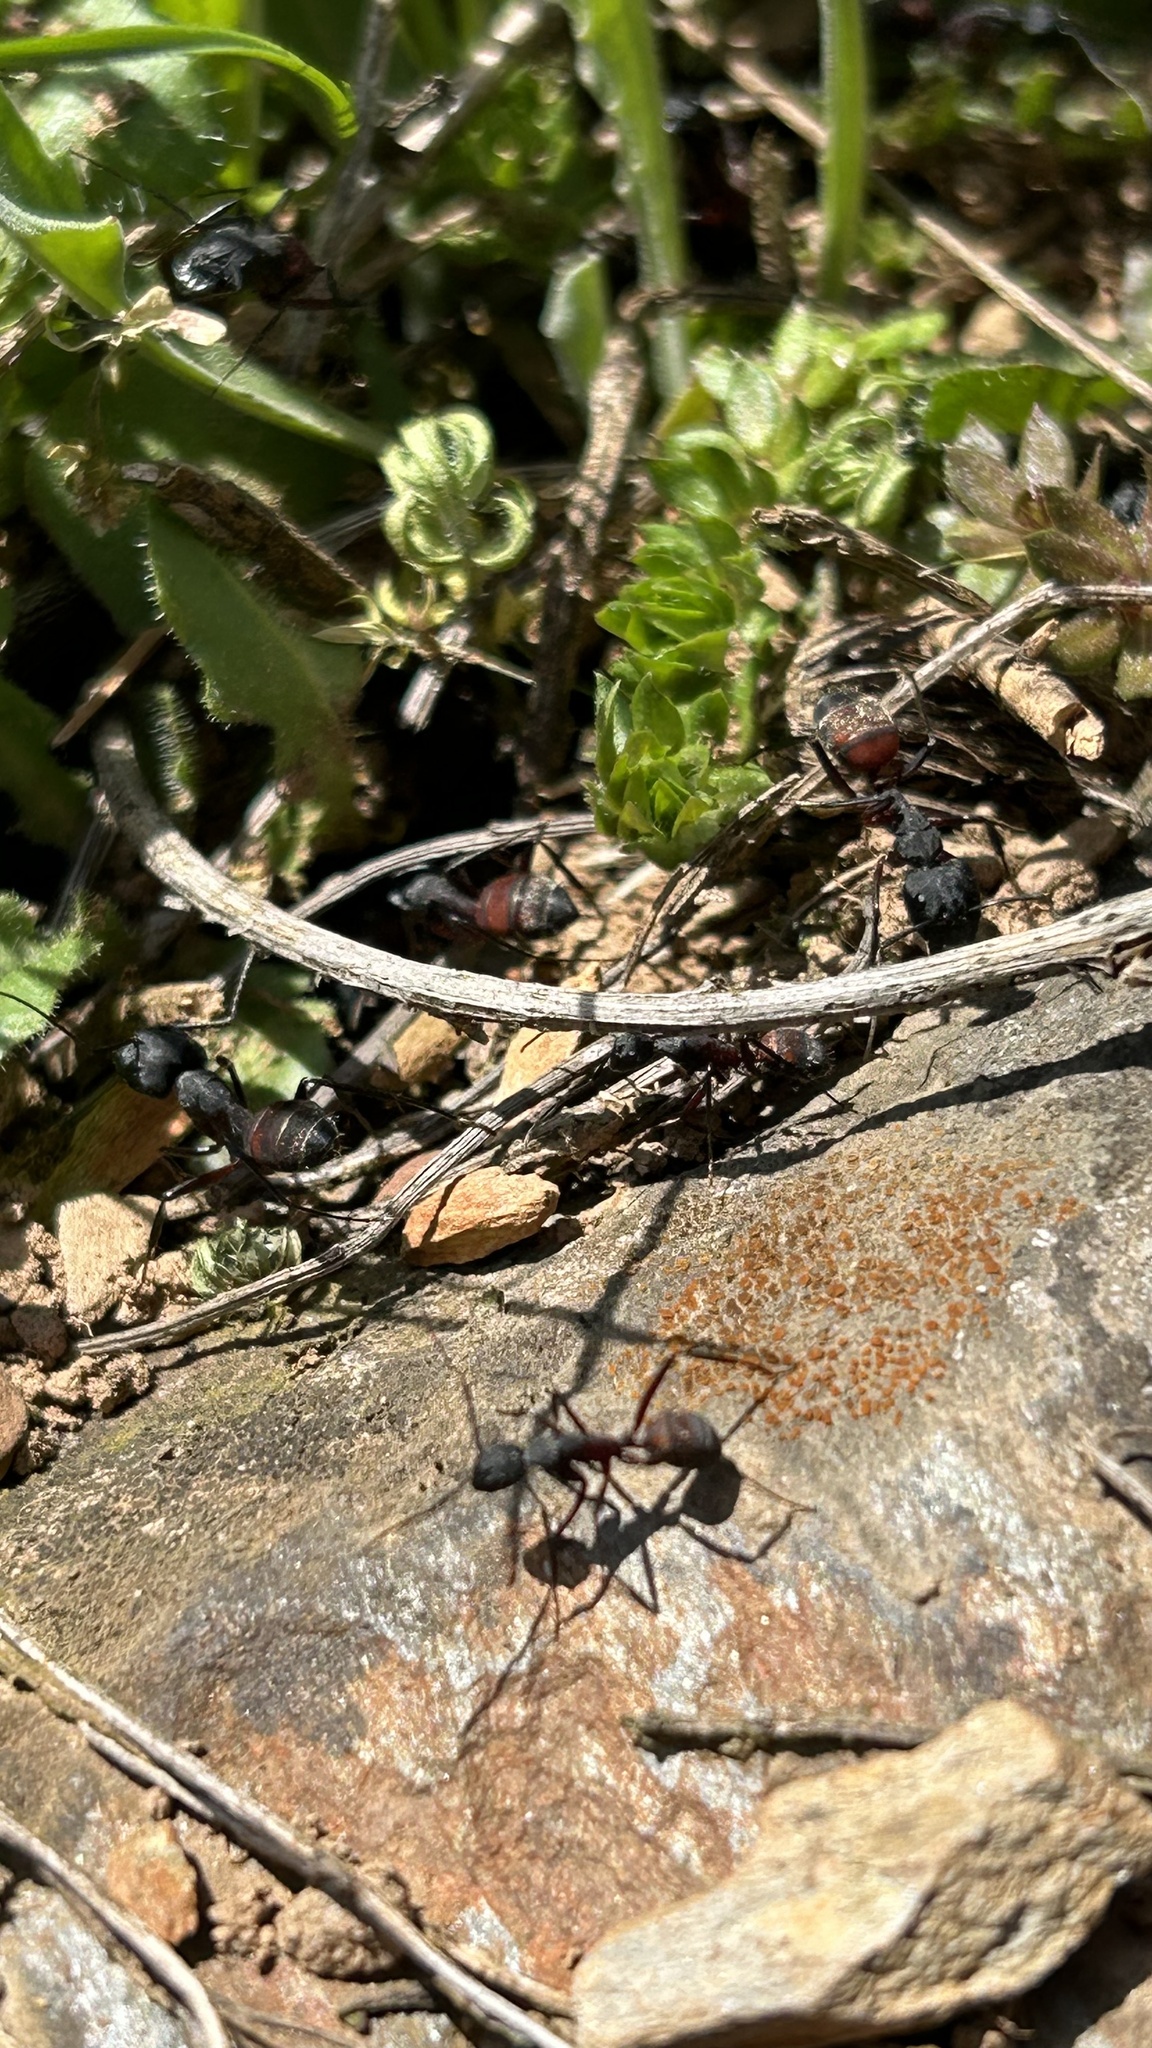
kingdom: Animalia
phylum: Arthropoda
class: Insecta
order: Hymenoptera
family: Formicidae
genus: Camponotus
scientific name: Camponotus cruentatus
